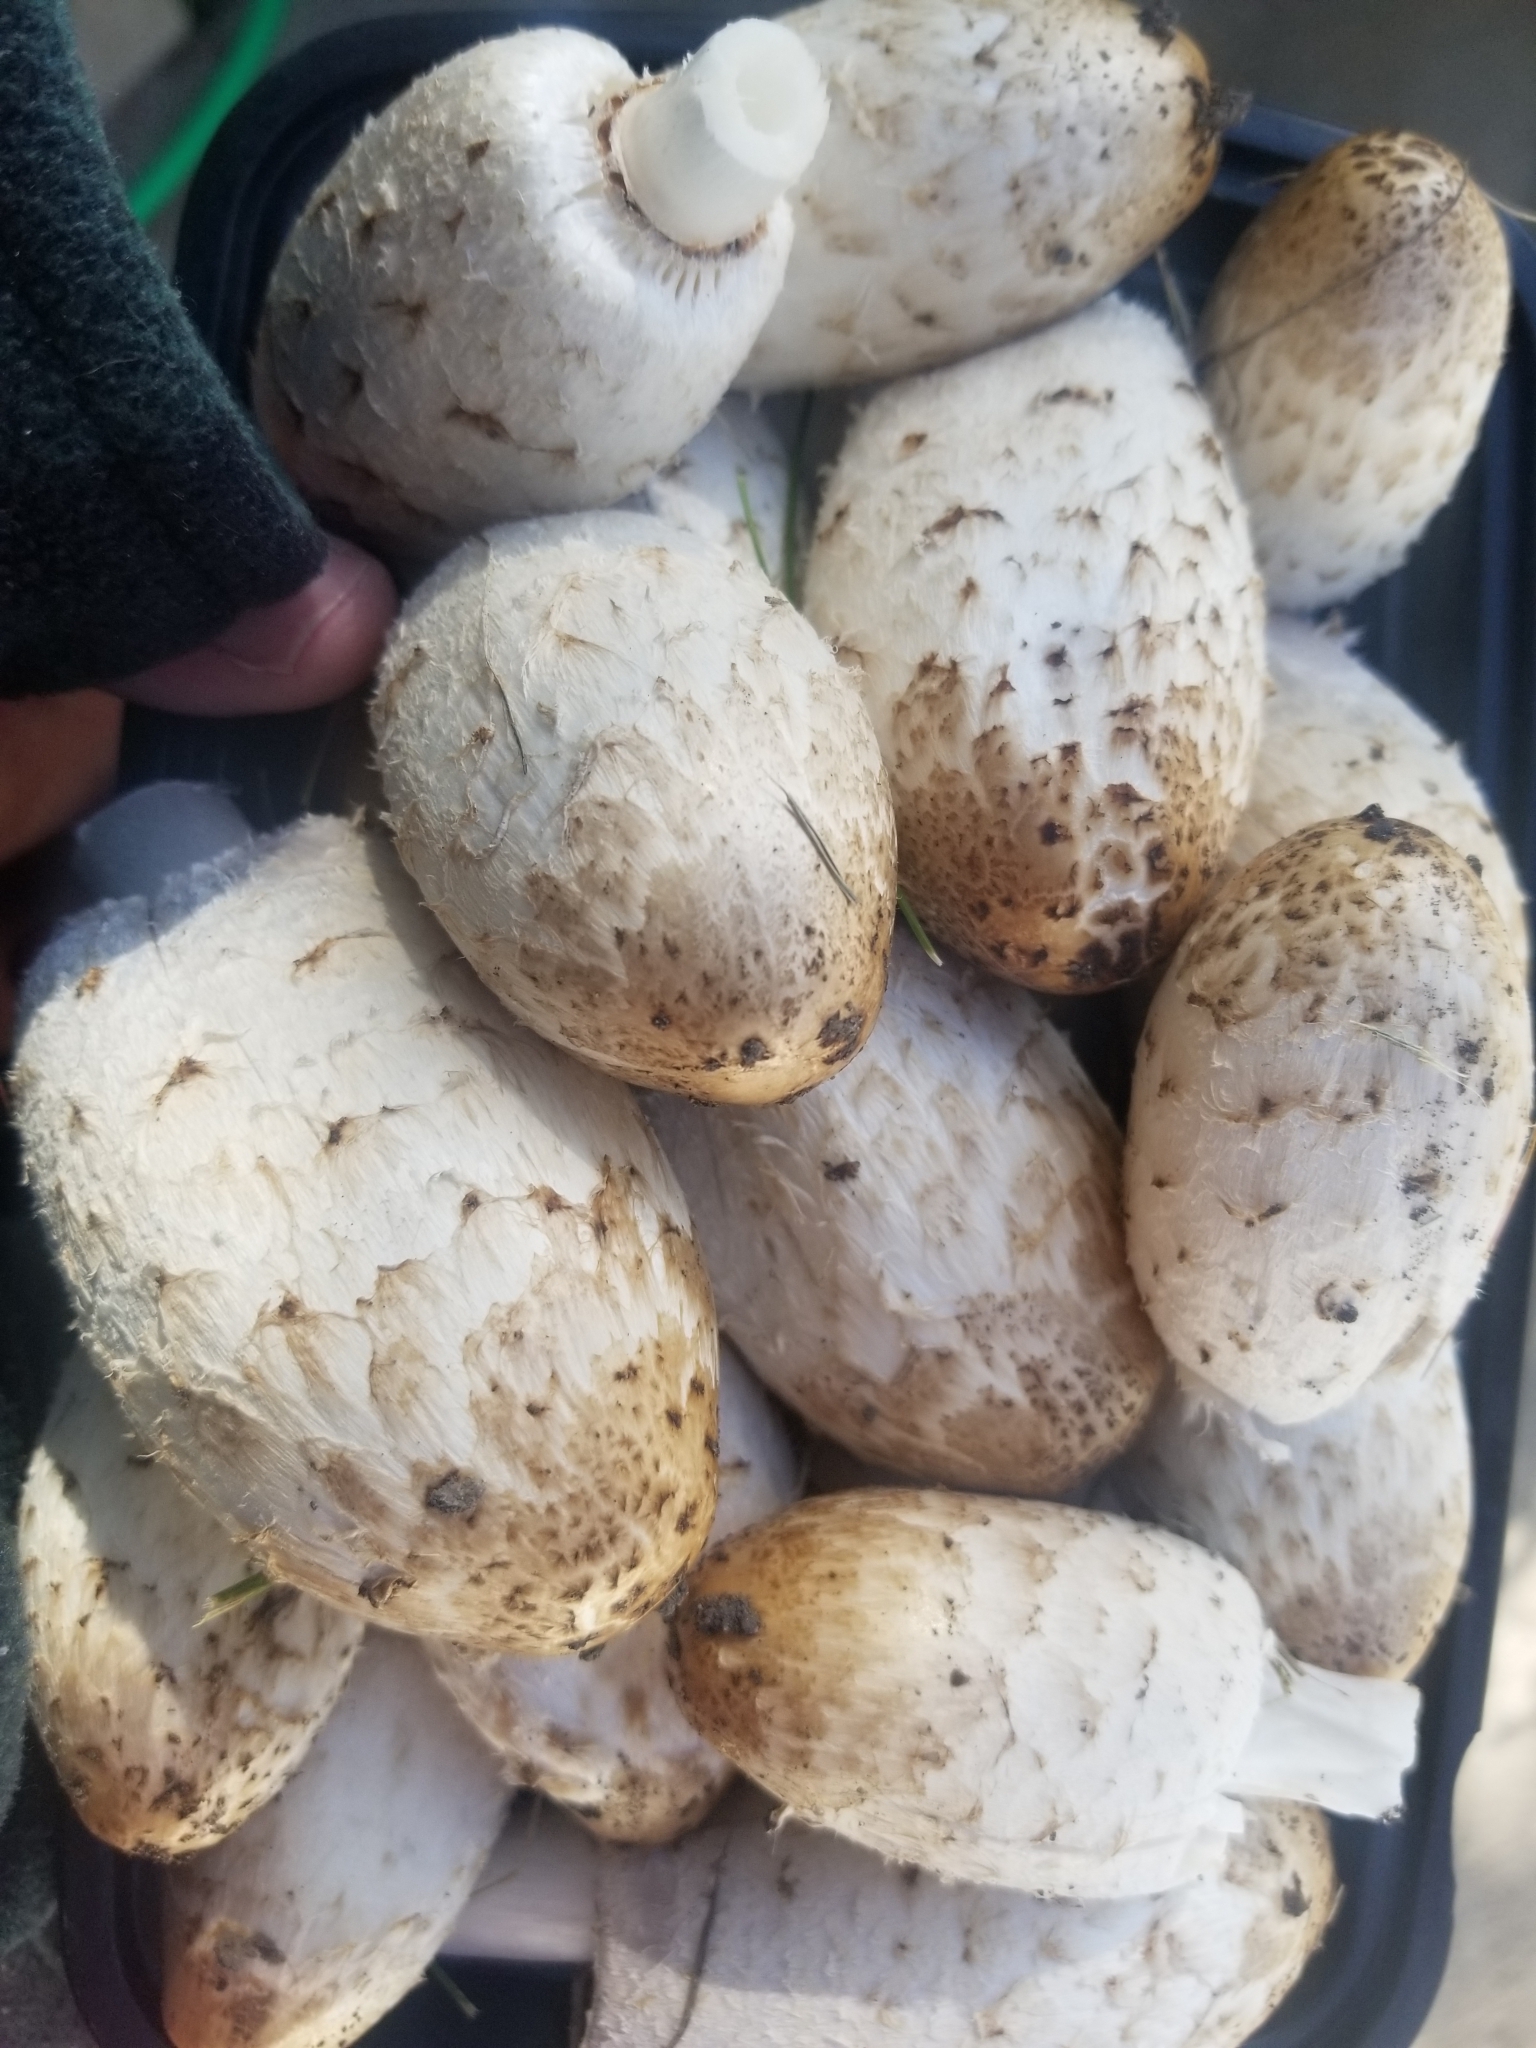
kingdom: Fungi
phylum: Basidiomycota
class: Agaricomycetes
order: Agaricales
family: Agaricaceae
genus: Coprinus
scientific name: Coprinus comatus
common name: Lawyer's wig
